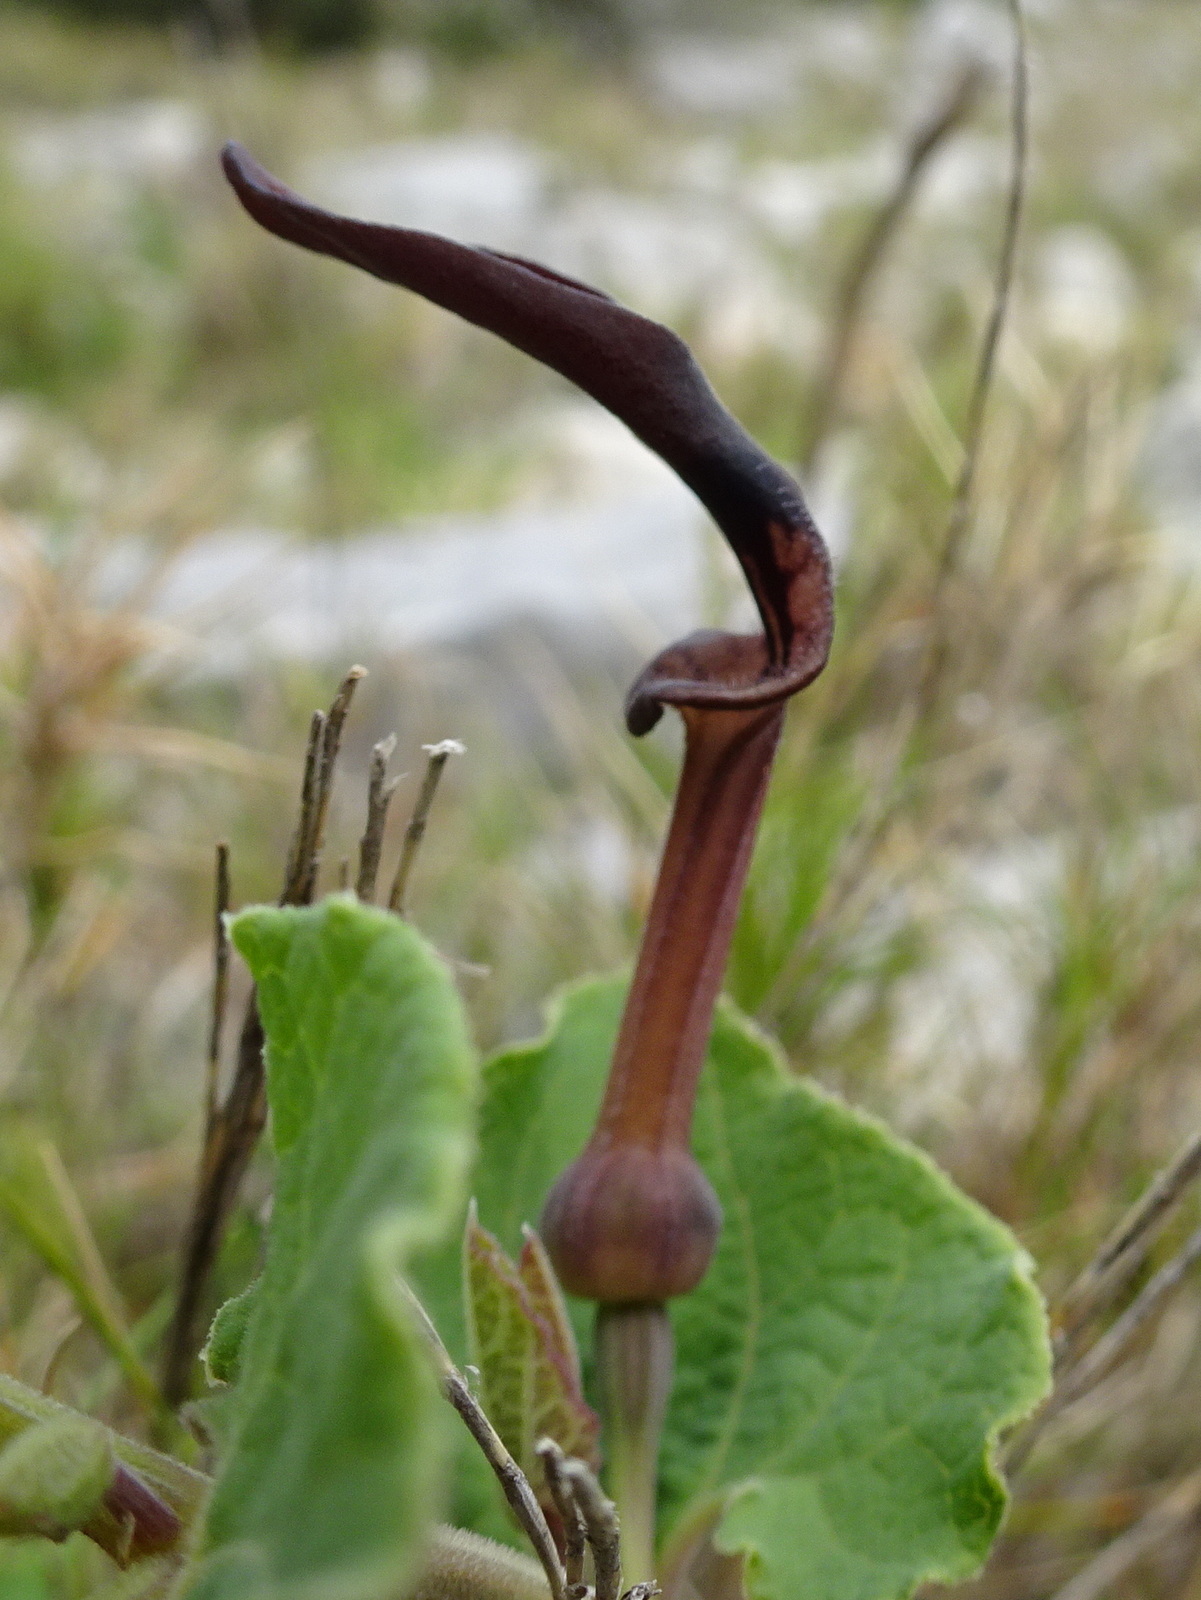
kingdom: Plantae
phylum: Tracheophyta
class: Magnoliopsida
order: Piperales
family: Aristolochiaceae
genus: Aristolochia
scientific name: Aristolochia pistolochia
